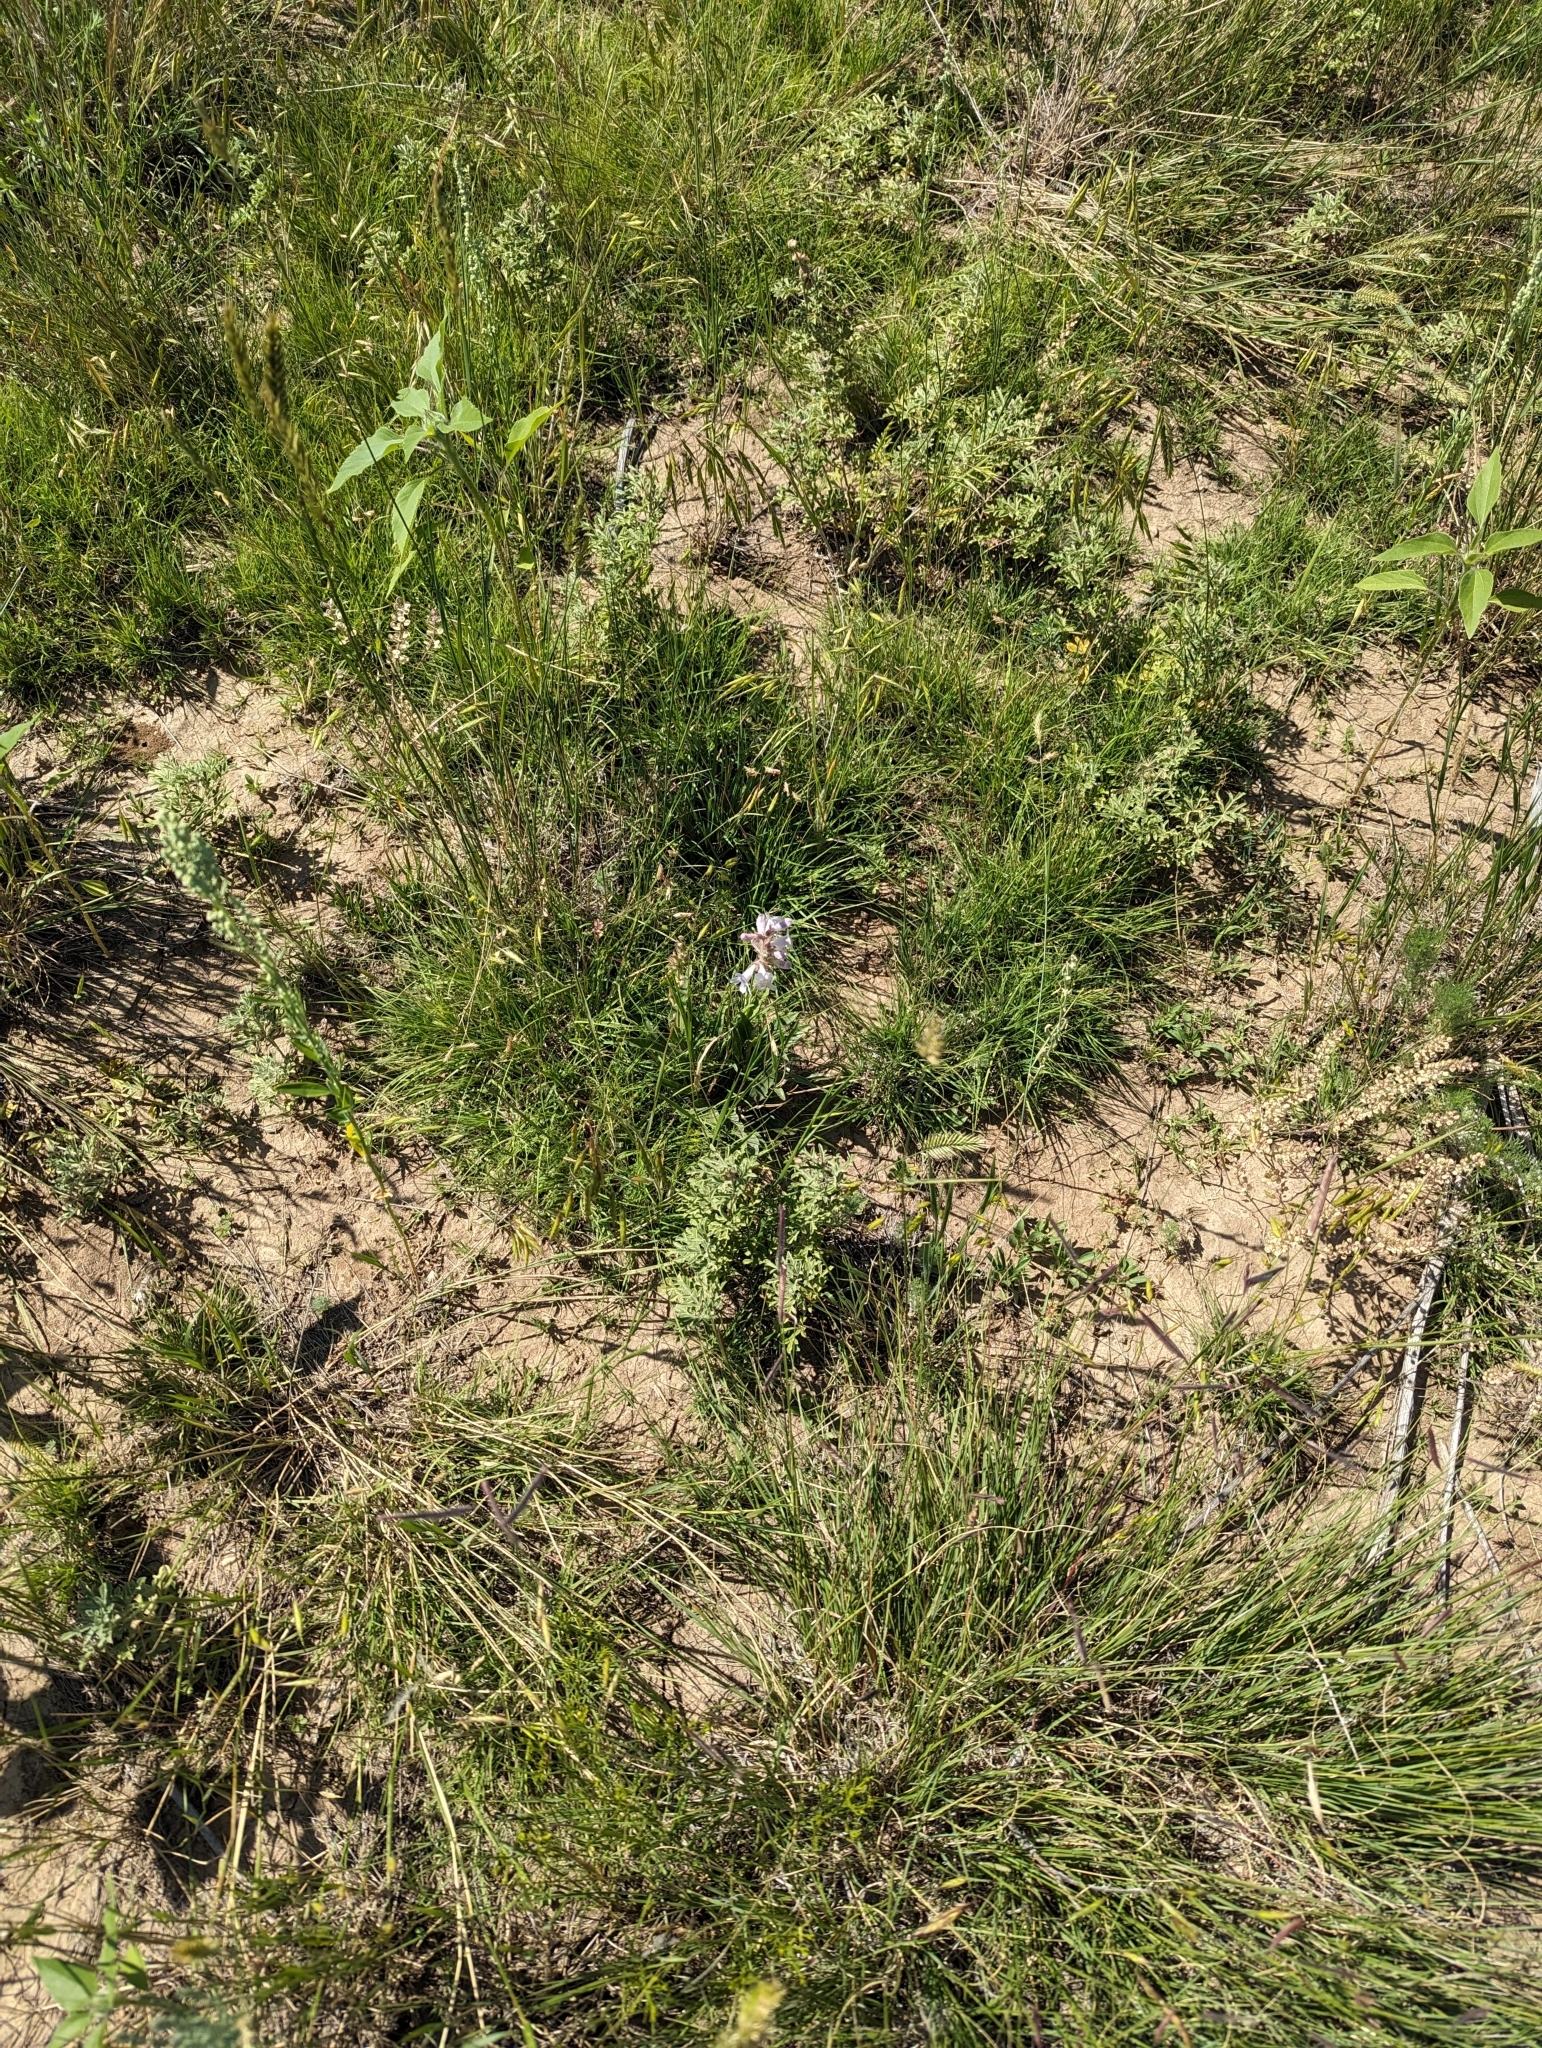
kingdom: Plantae
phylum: Tracheophyta
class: Magnoliopsida
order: Lamiales
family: Plantaginaceae
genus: Penstemon
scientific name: Penstemon albidus
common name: White beardtongue
